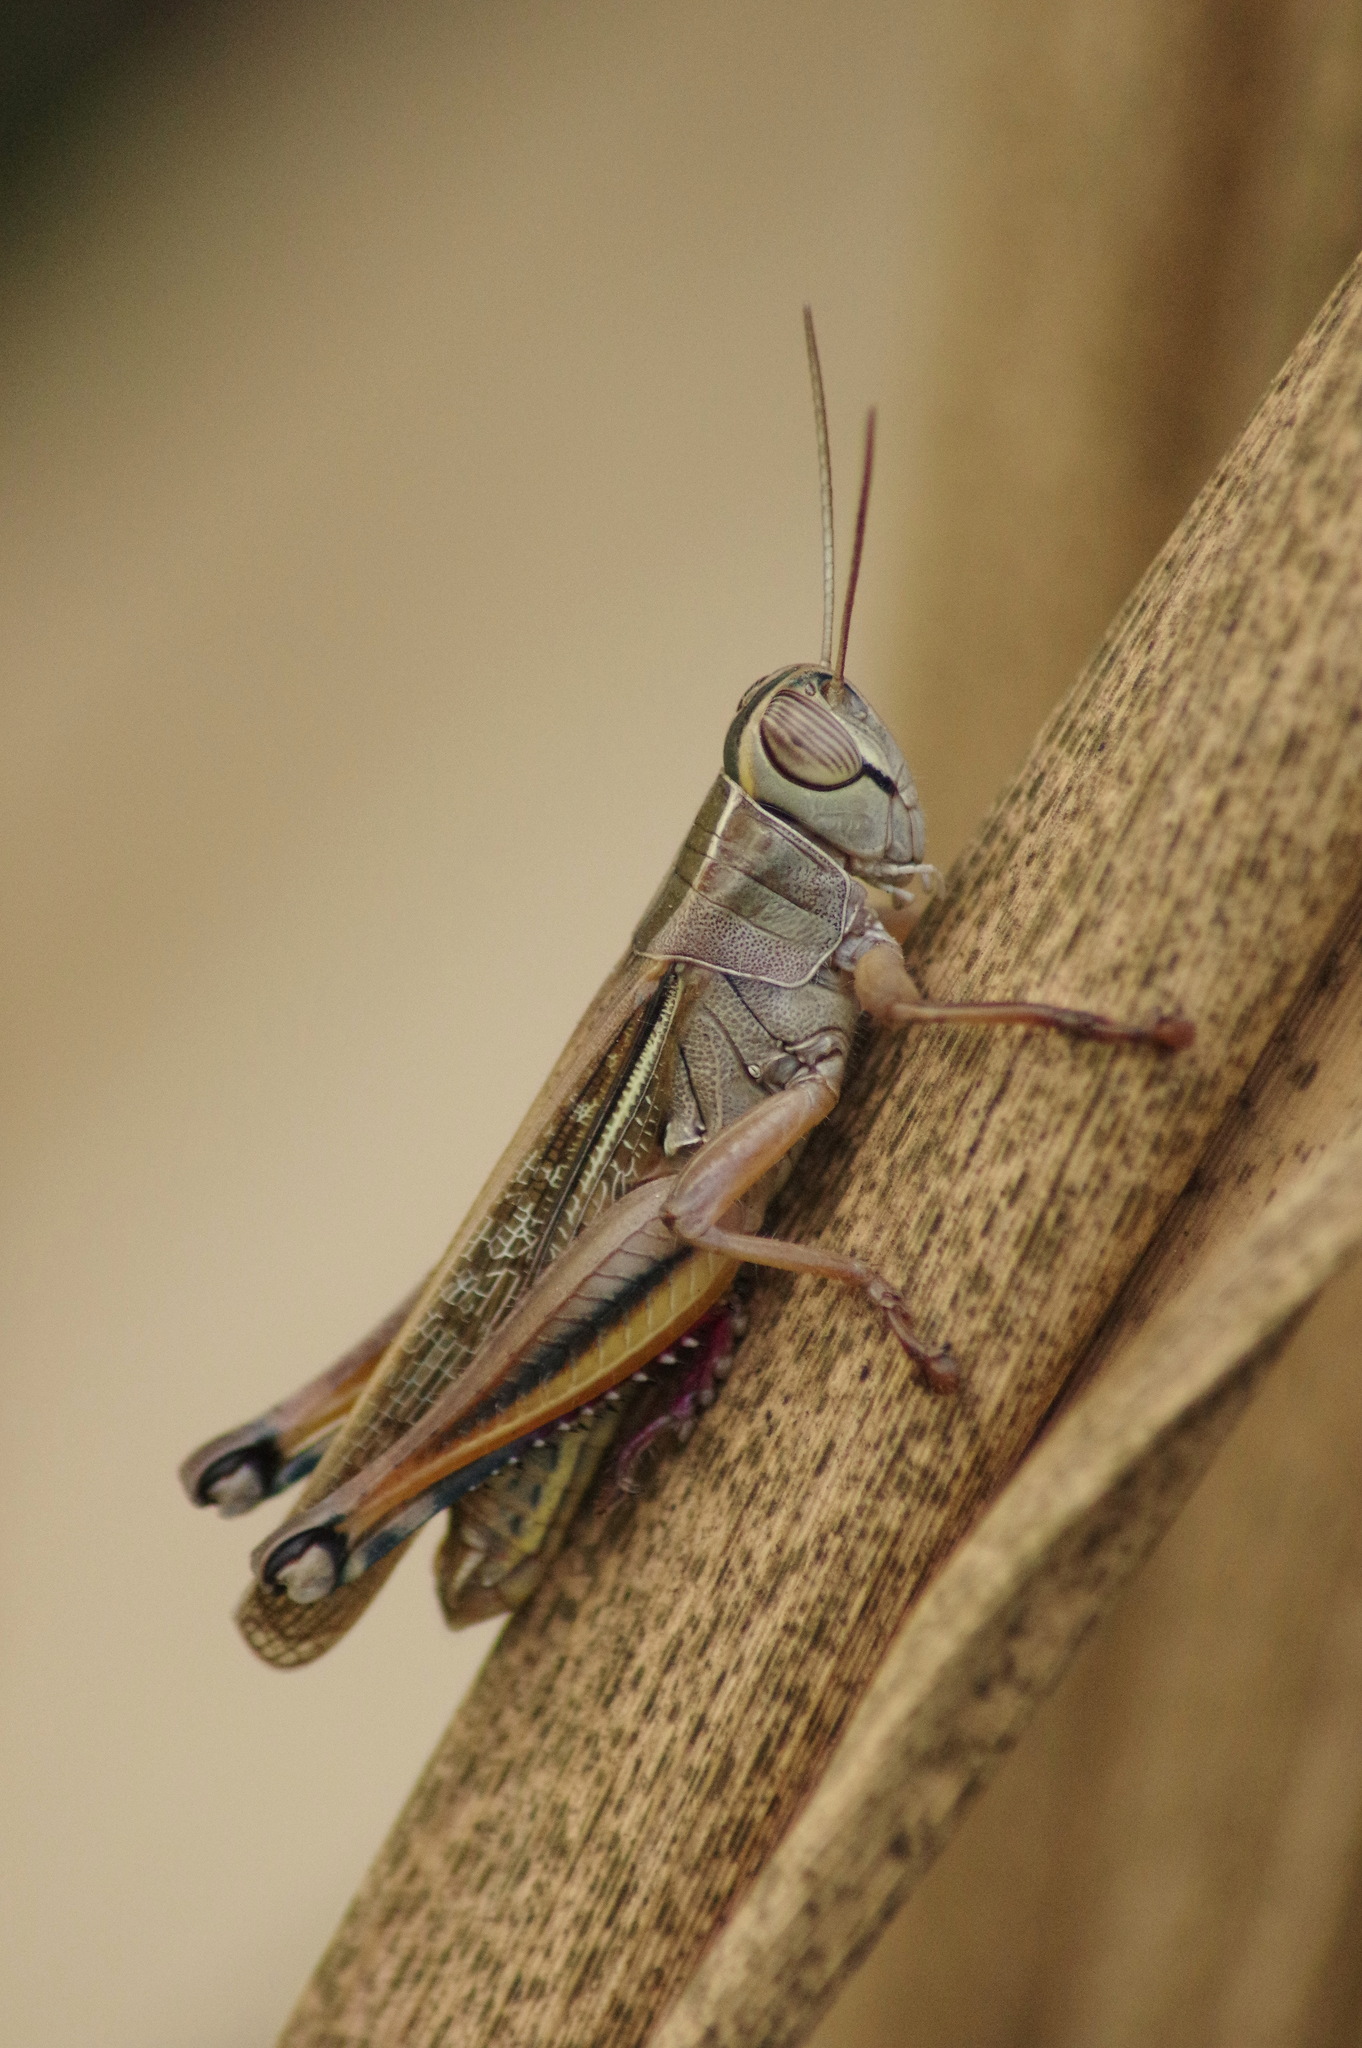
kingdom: Animalia
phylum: Arthropoda
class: Insecta
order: Orthoptera
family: Acrididae
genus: Eyprepocnemis
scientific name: Eyprepocnemis plorans
